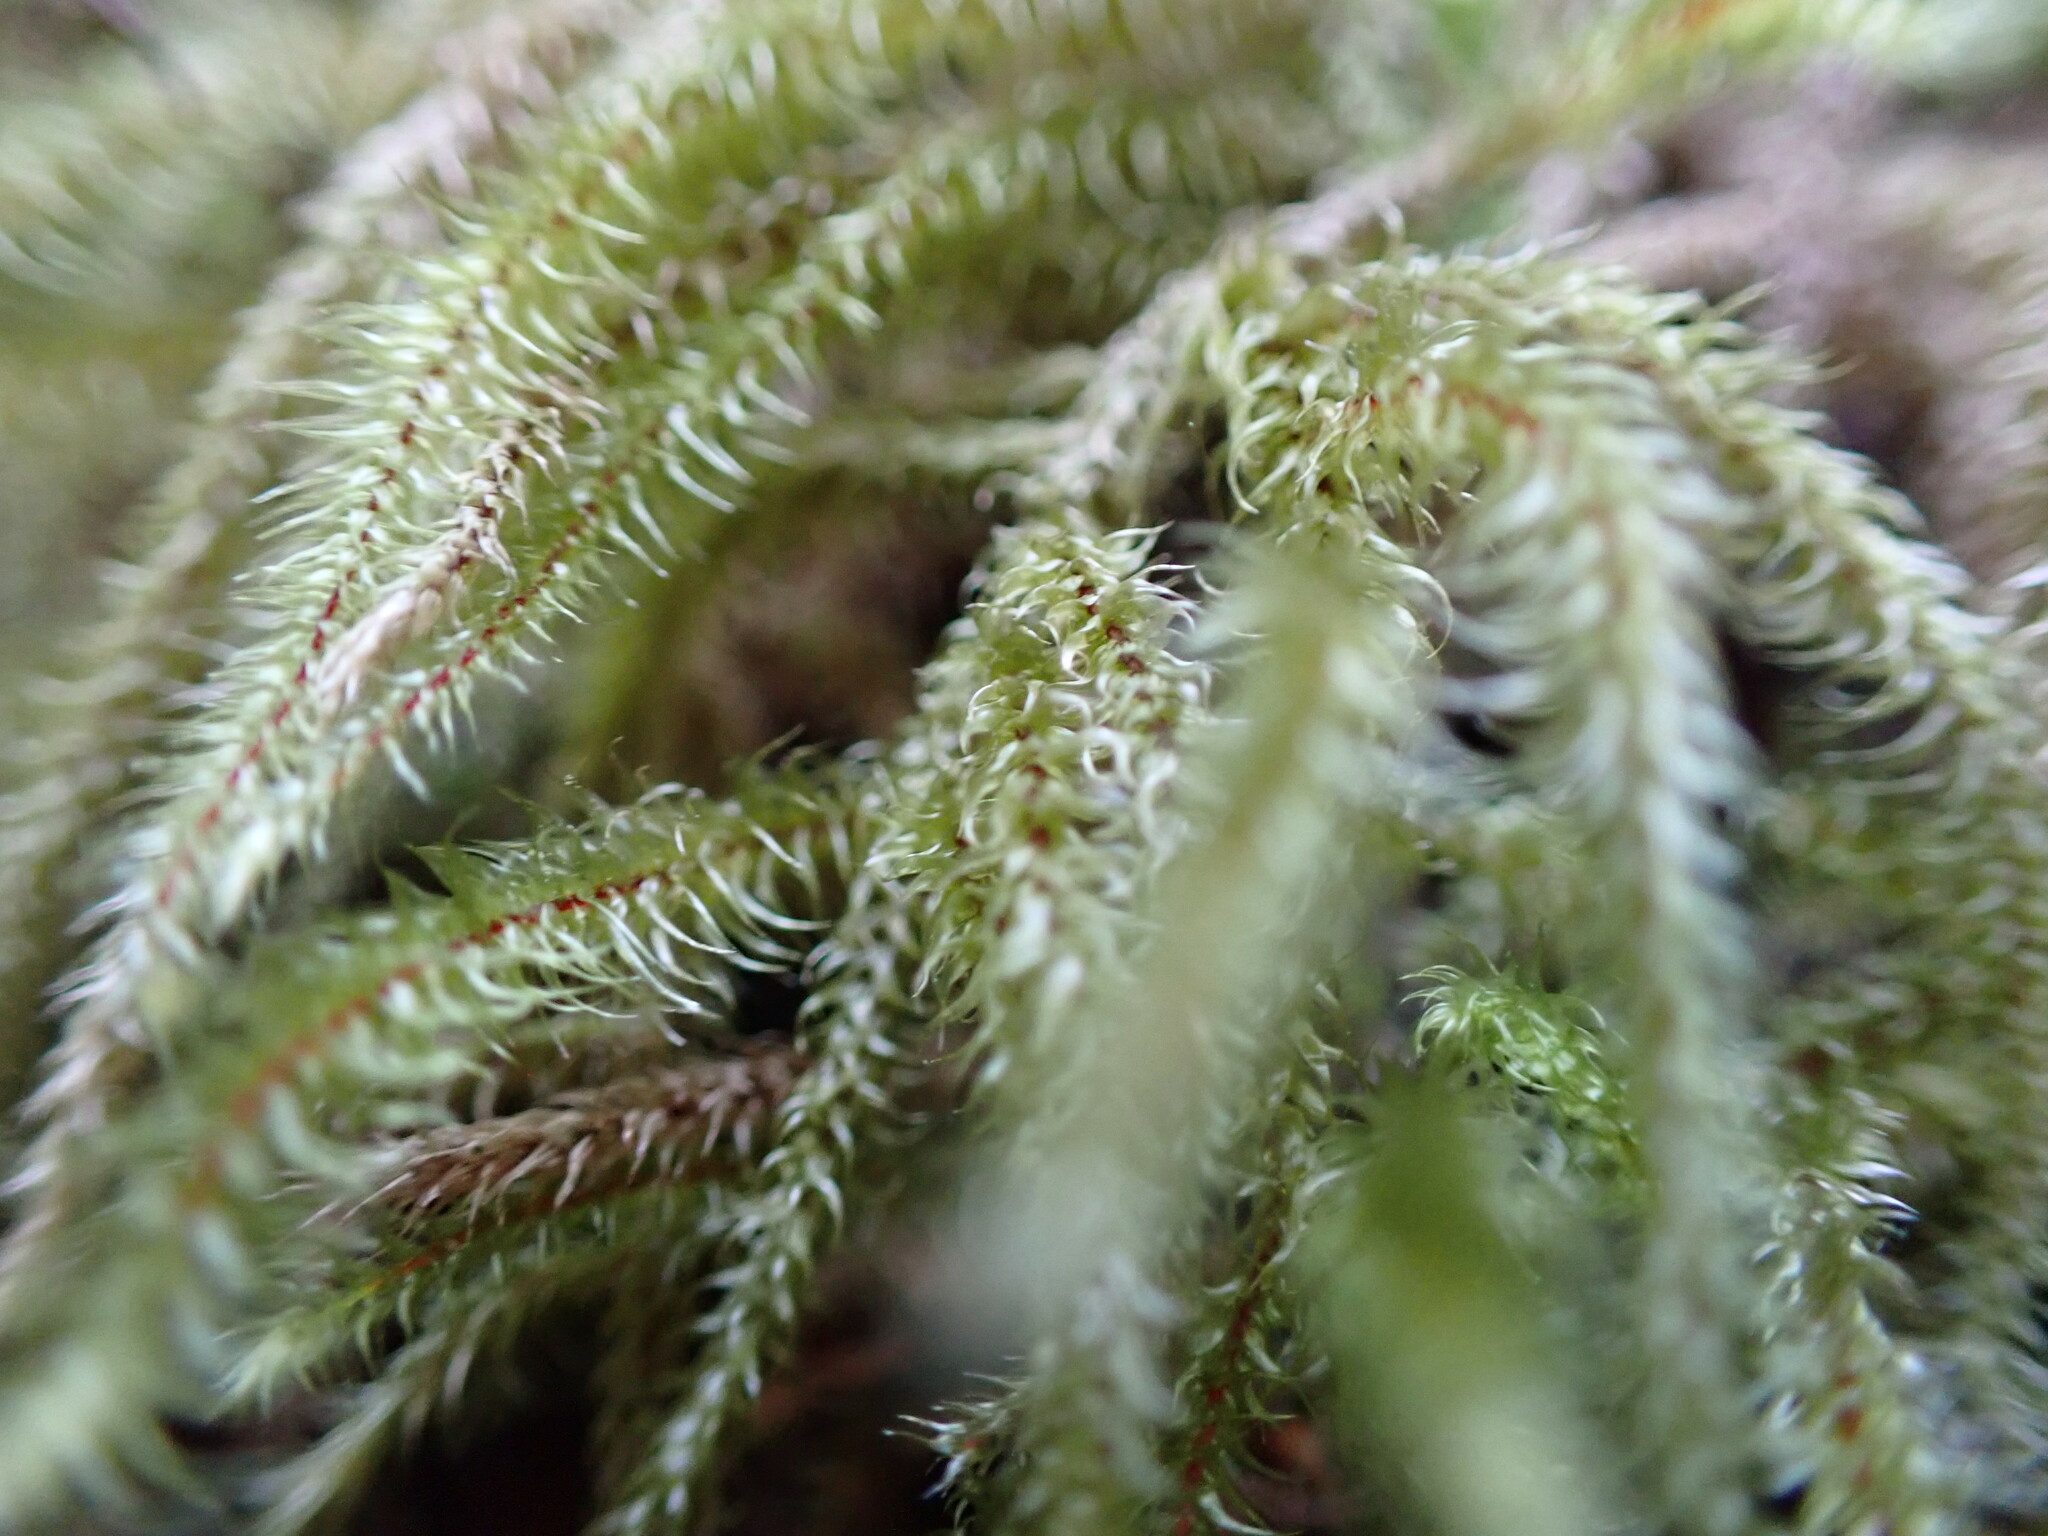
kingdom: Plantae
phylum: Bryophyta
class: Bryopsida
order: Hypnales
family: Hylocomiaceae
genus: Rhytidiadelphus
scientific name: Rhytidiadelphus loreus
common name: Lanky moss
